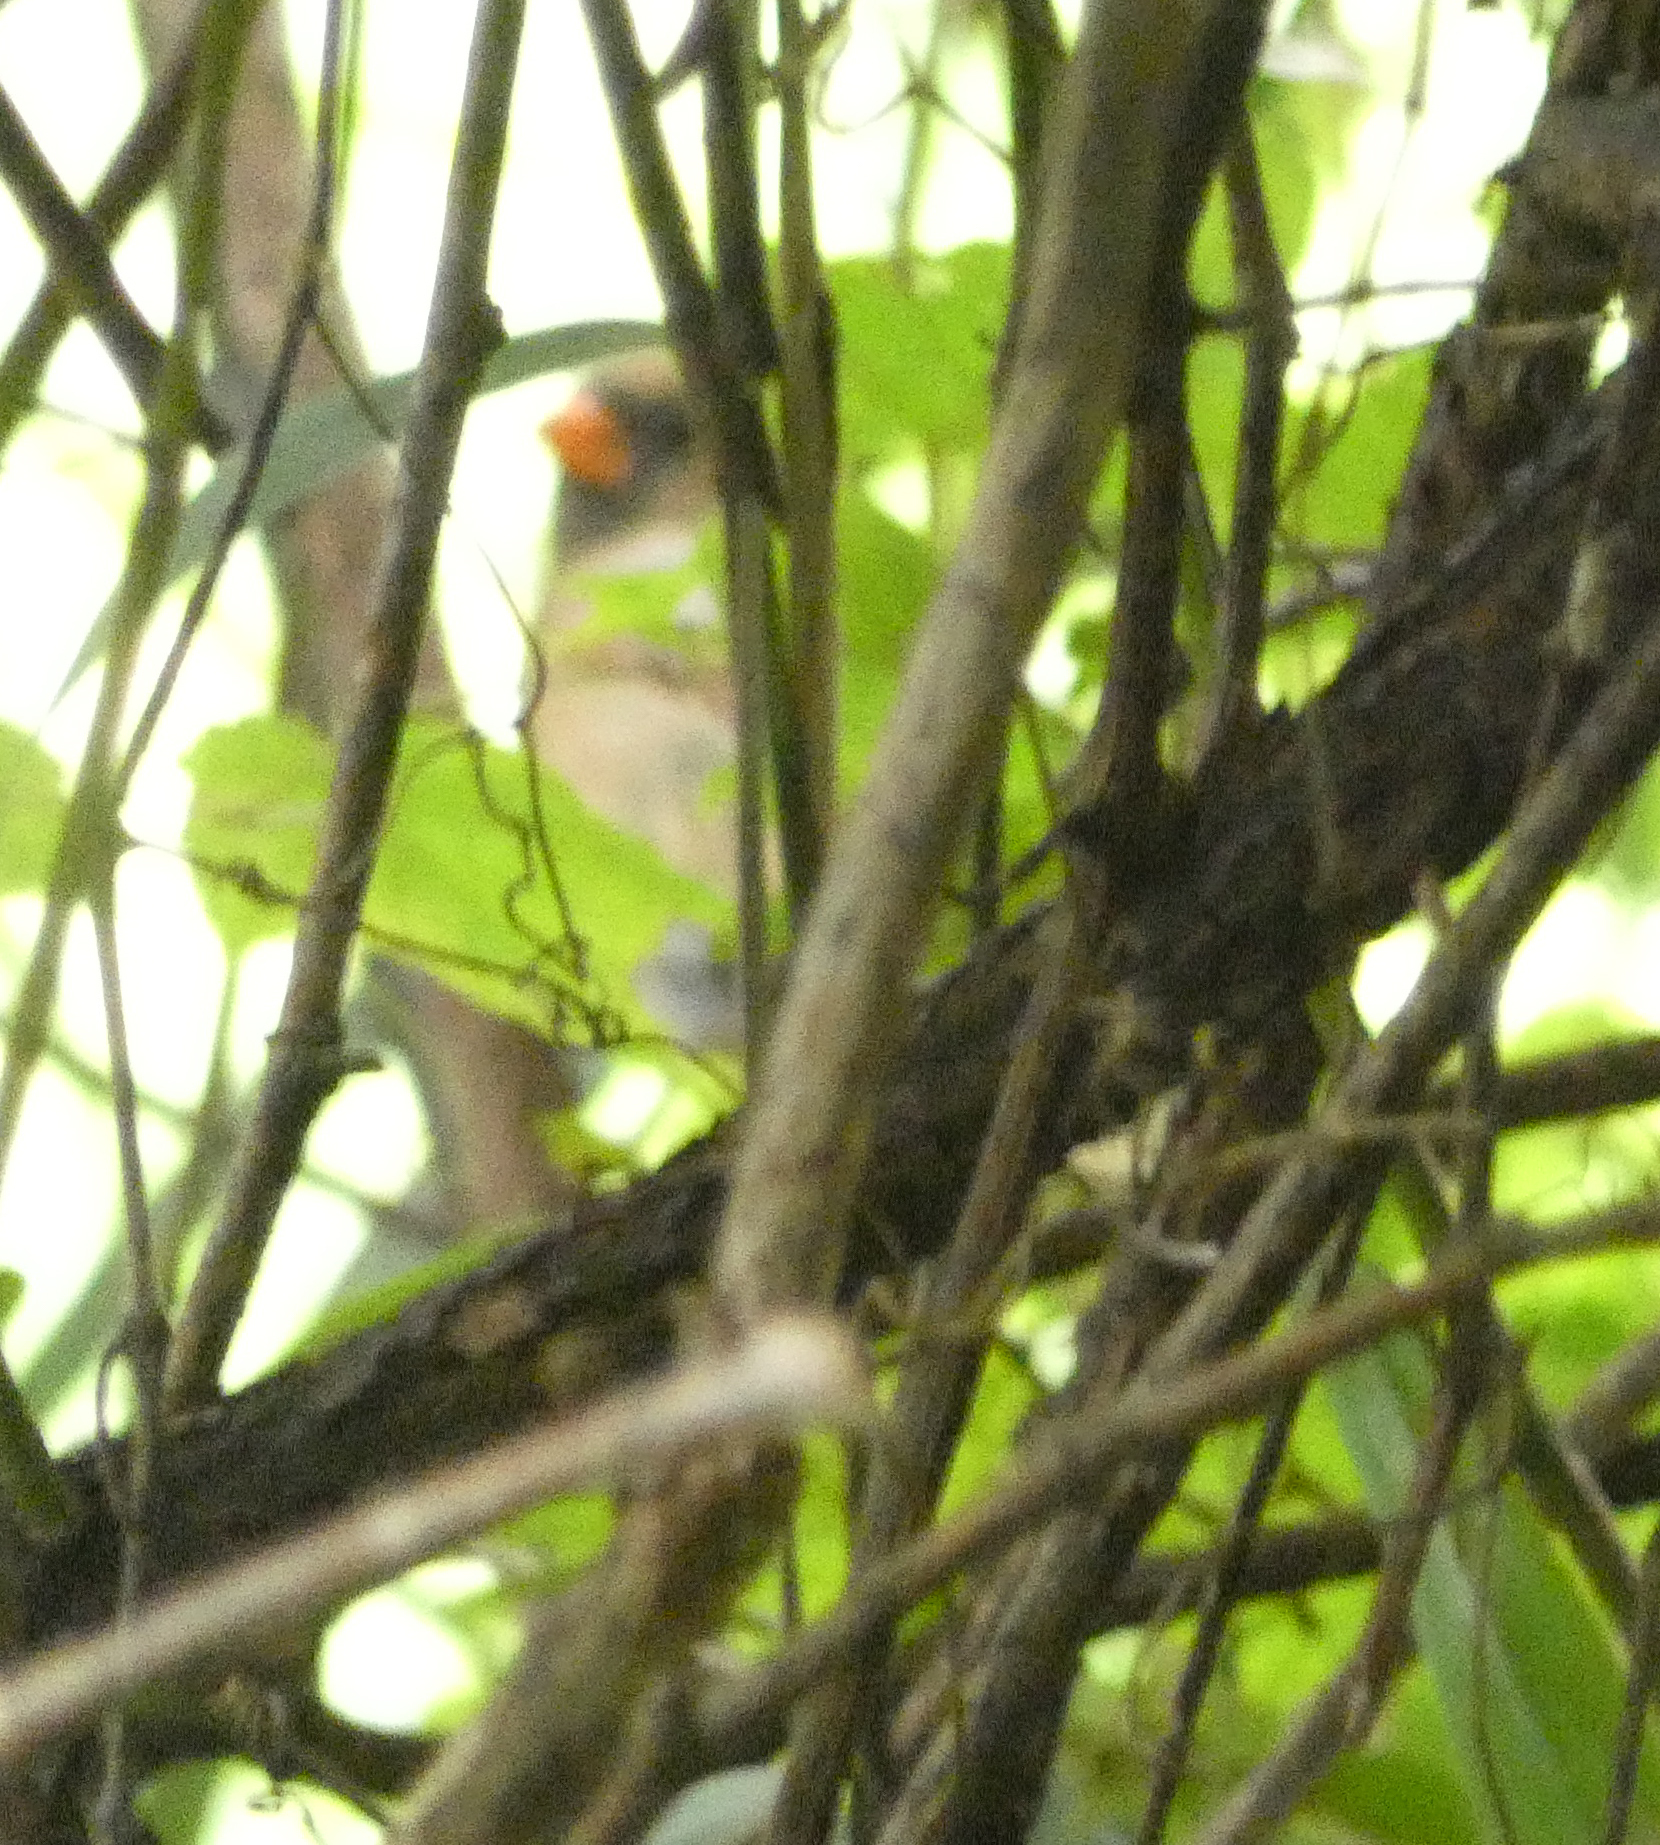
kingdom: Animalia
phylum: Chordata
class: Aves
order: Passeriformes
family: Cardinalidae
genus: Cardinalis
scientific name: Cardinalis cardinalis
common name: Northern cardinal
